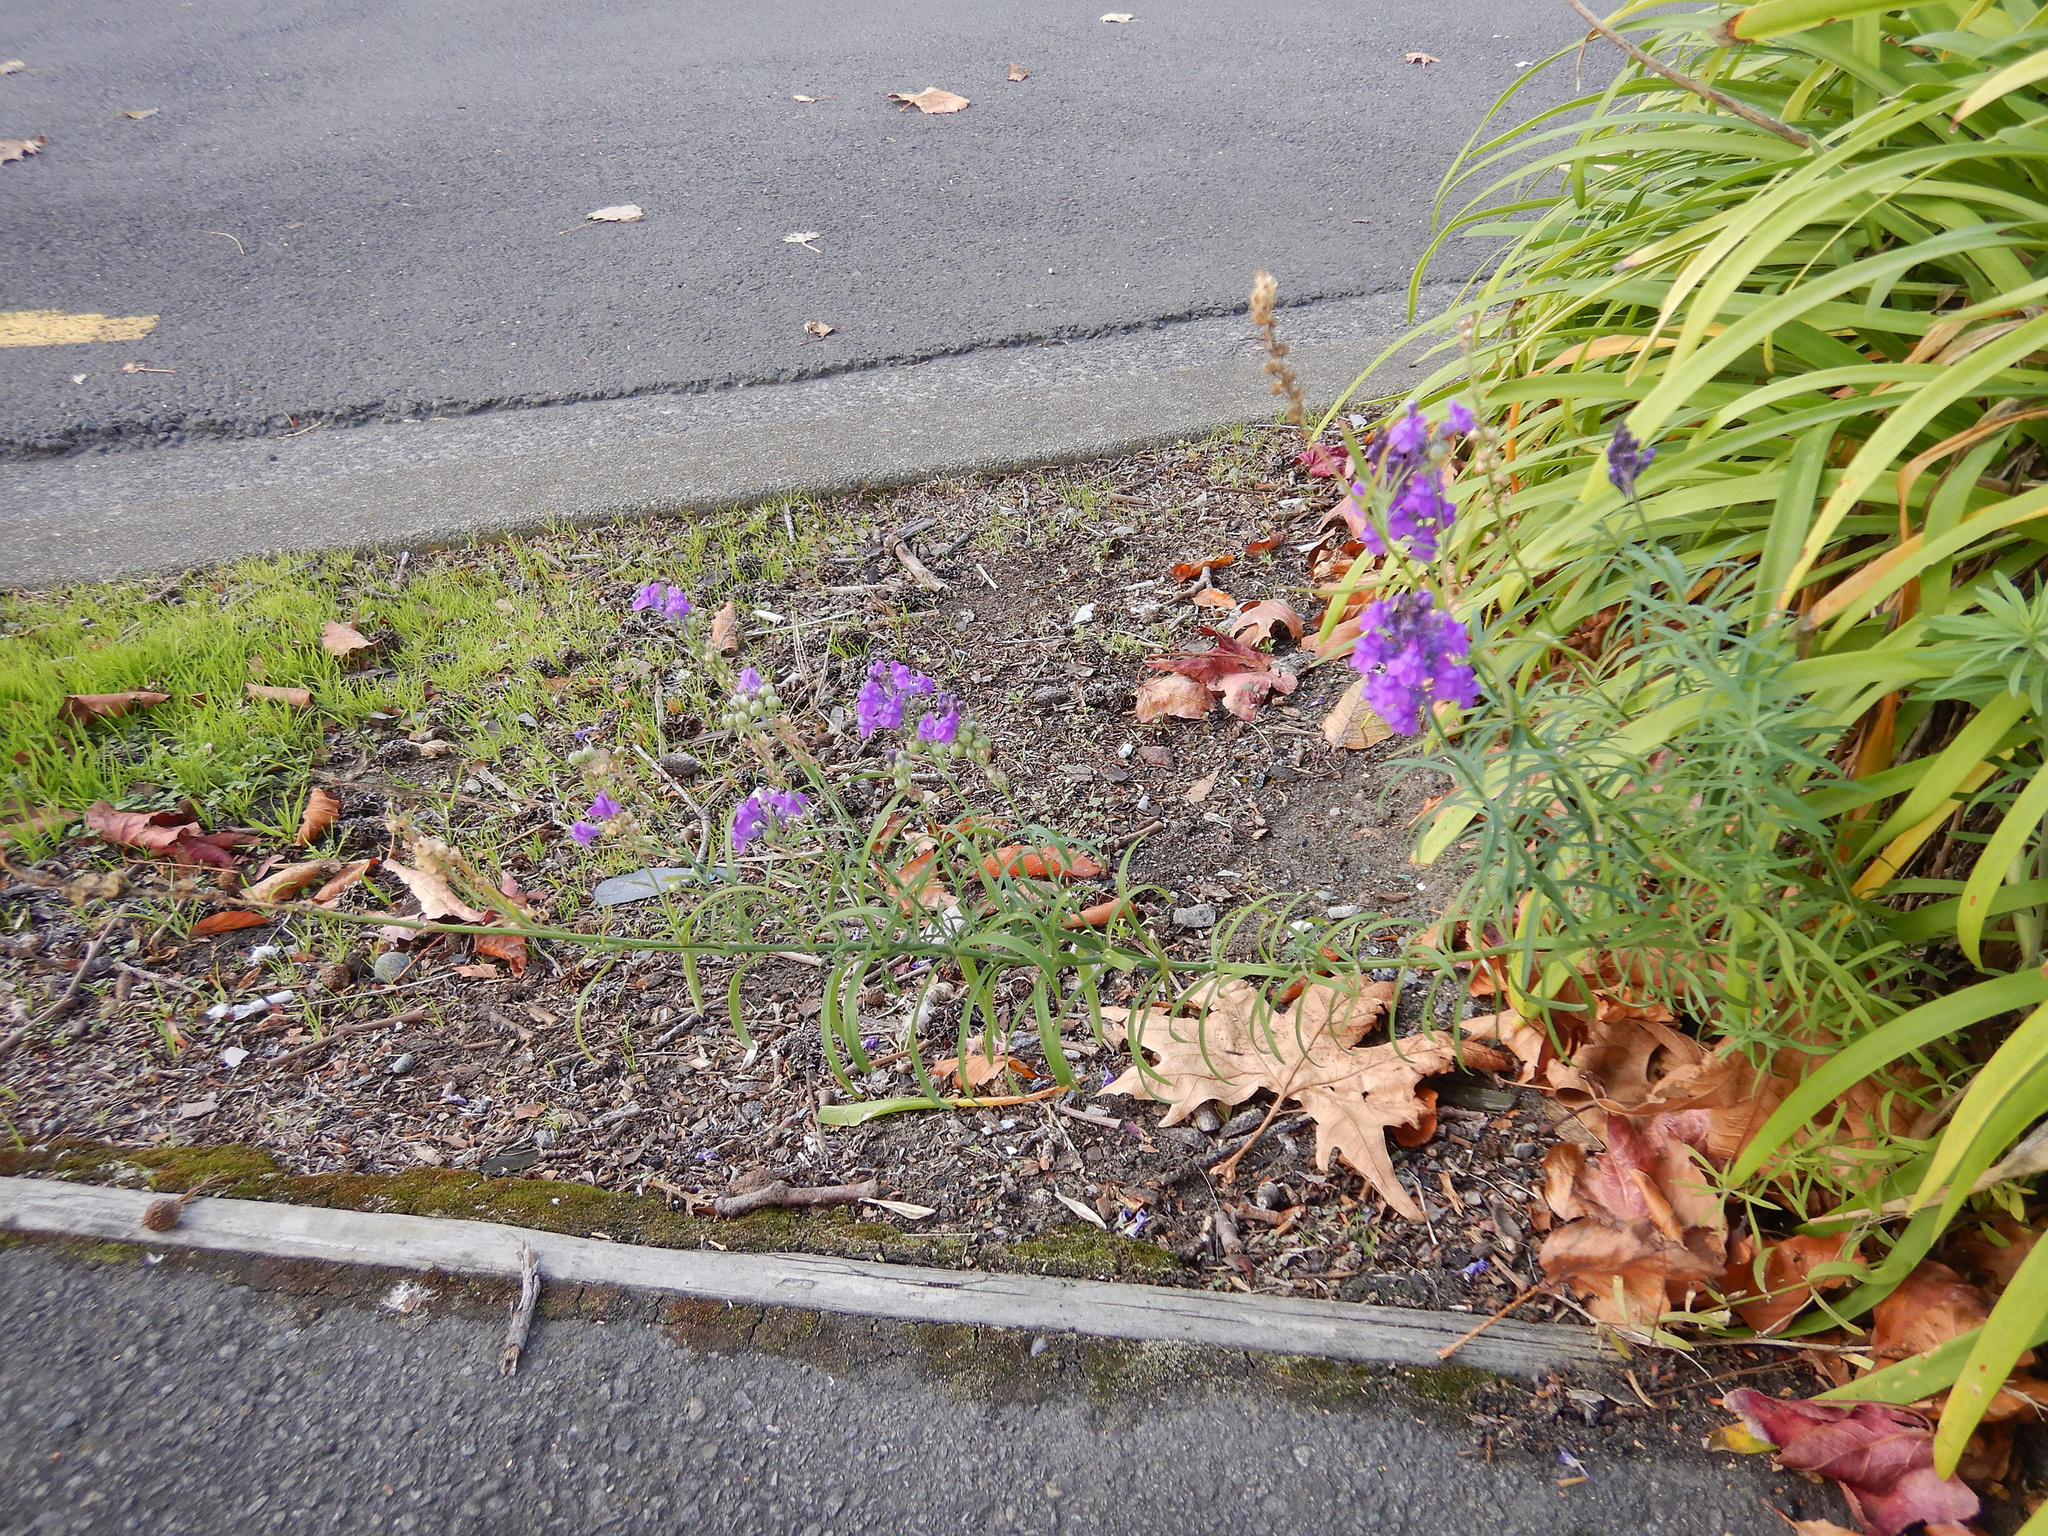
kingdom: Plantae
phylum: Tracheophyta
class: Magnoliopsida
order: Lamiales
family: Plantaginaceae
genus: Linaria
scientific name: Linaria purpurea
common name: Purple toadflax
